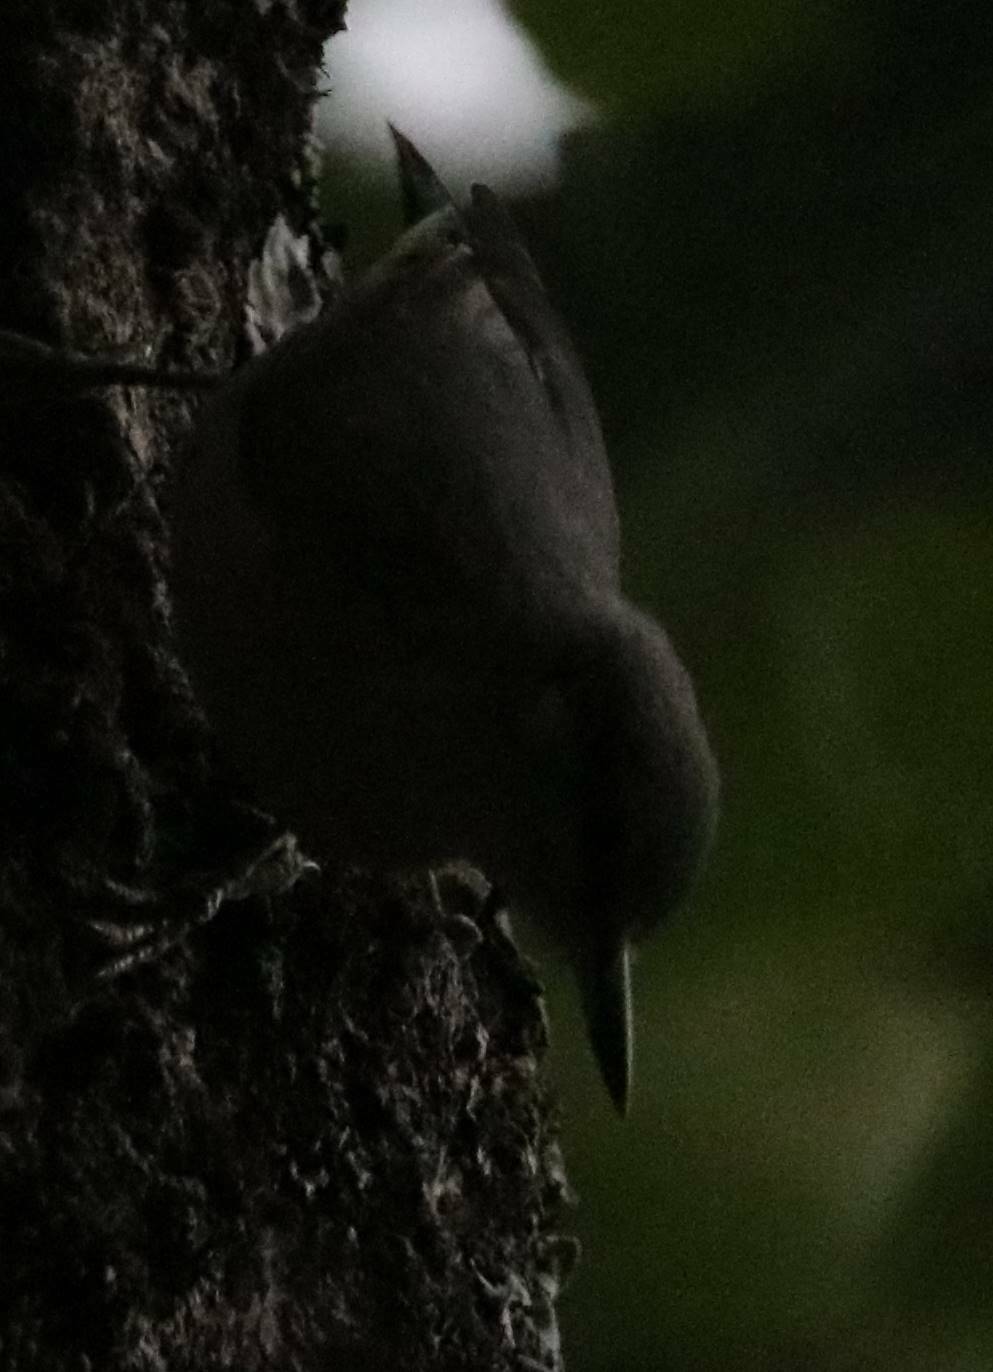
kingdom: Animalia
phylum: Chordata
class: Aves
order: Passeriformes
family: Sittidae
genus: Sitta
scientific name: Sitta ledanti
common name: Algerian nuthatch
